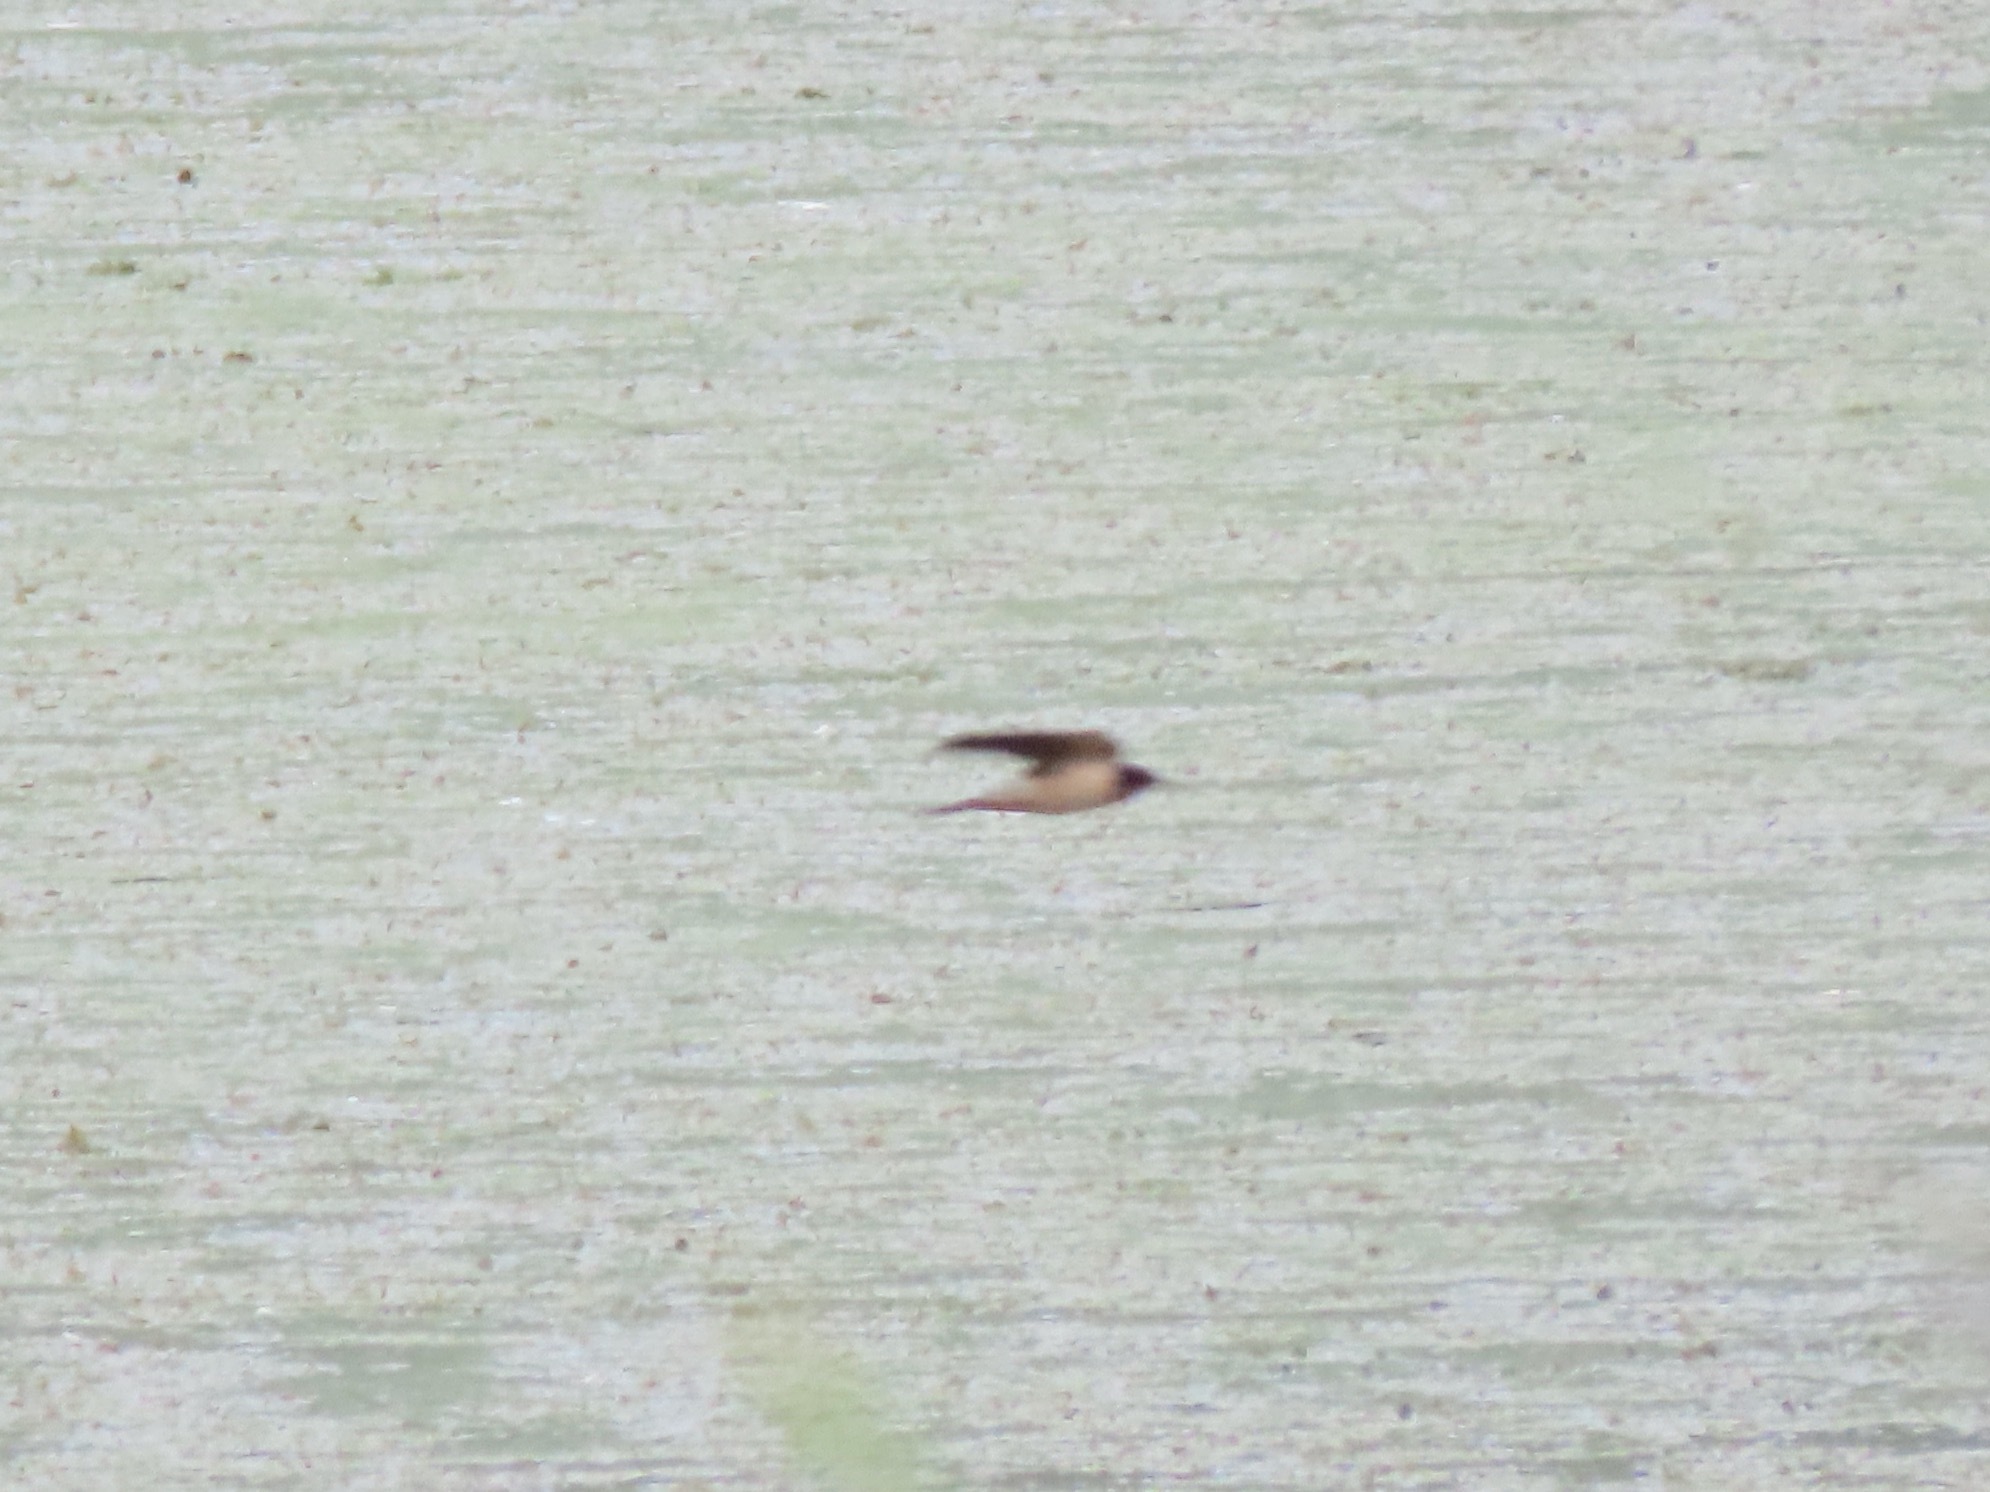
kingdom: Animalia
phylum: Chordata
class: Aves
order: Passeriformes
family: Hirundinidae
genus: Hirundo
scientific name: Hirundo rustica
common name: Barn swallow
